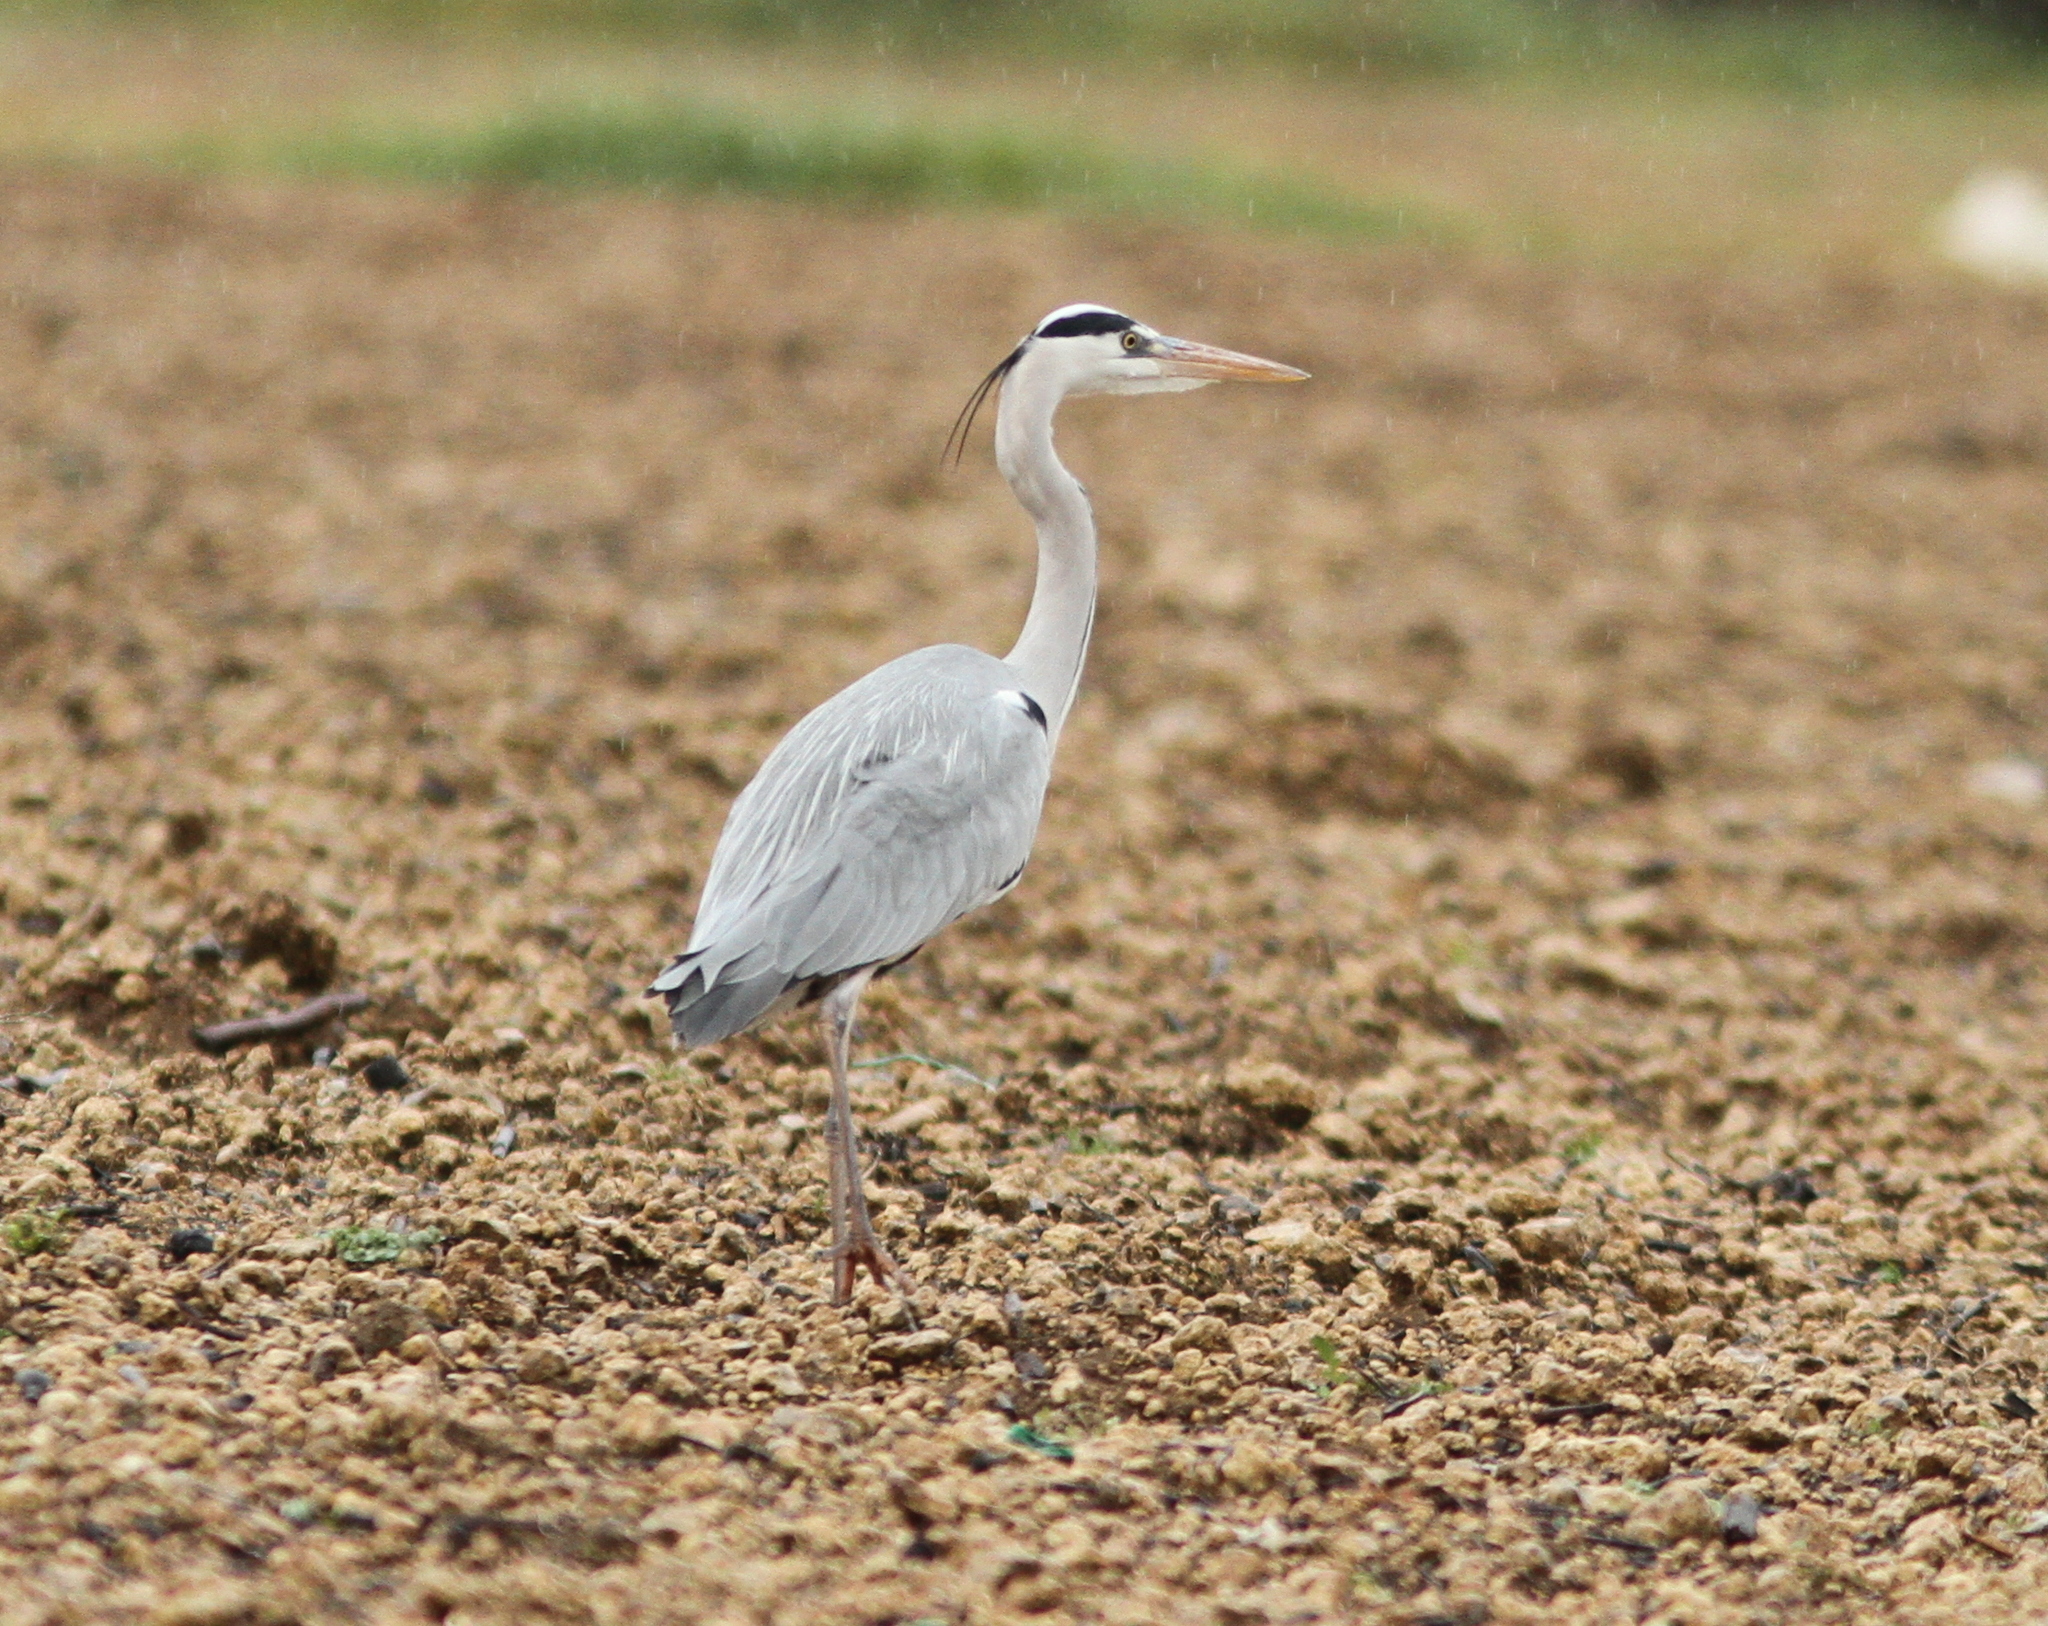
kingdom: Animalia
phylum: Chordata
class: Aves
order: Pelecaniformes
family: Ardeidae
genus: Ardea
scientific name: Ardea cinerea
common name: Grey heron
